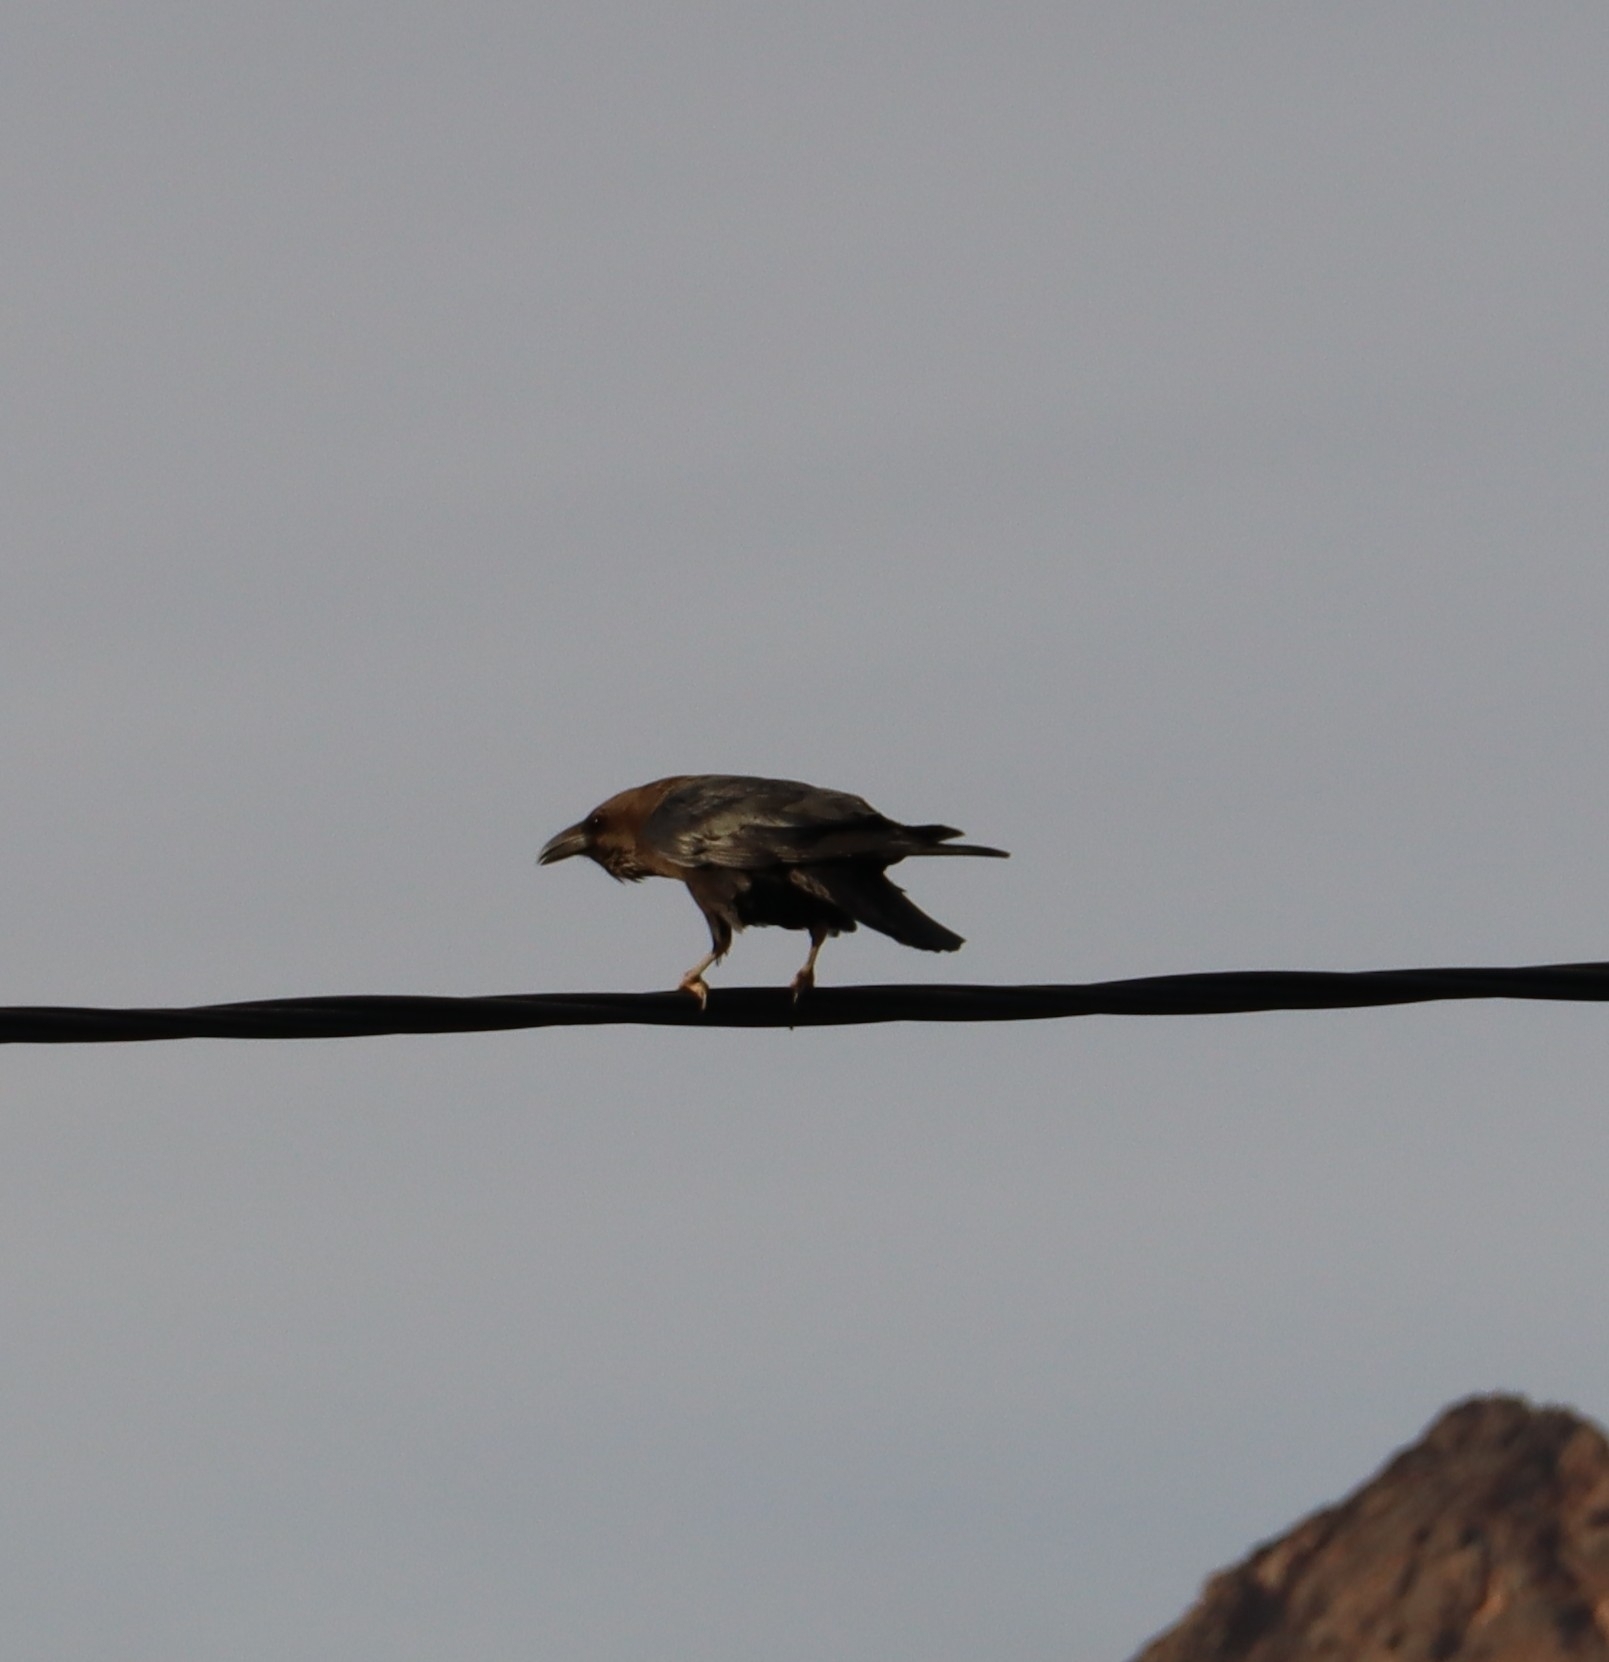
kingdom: Animalia
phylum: Chordata
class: Aves
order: Passeriformes
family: Corvidae
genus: Corvus
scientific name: Corvus ruficollis
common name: Brown-necked raven
